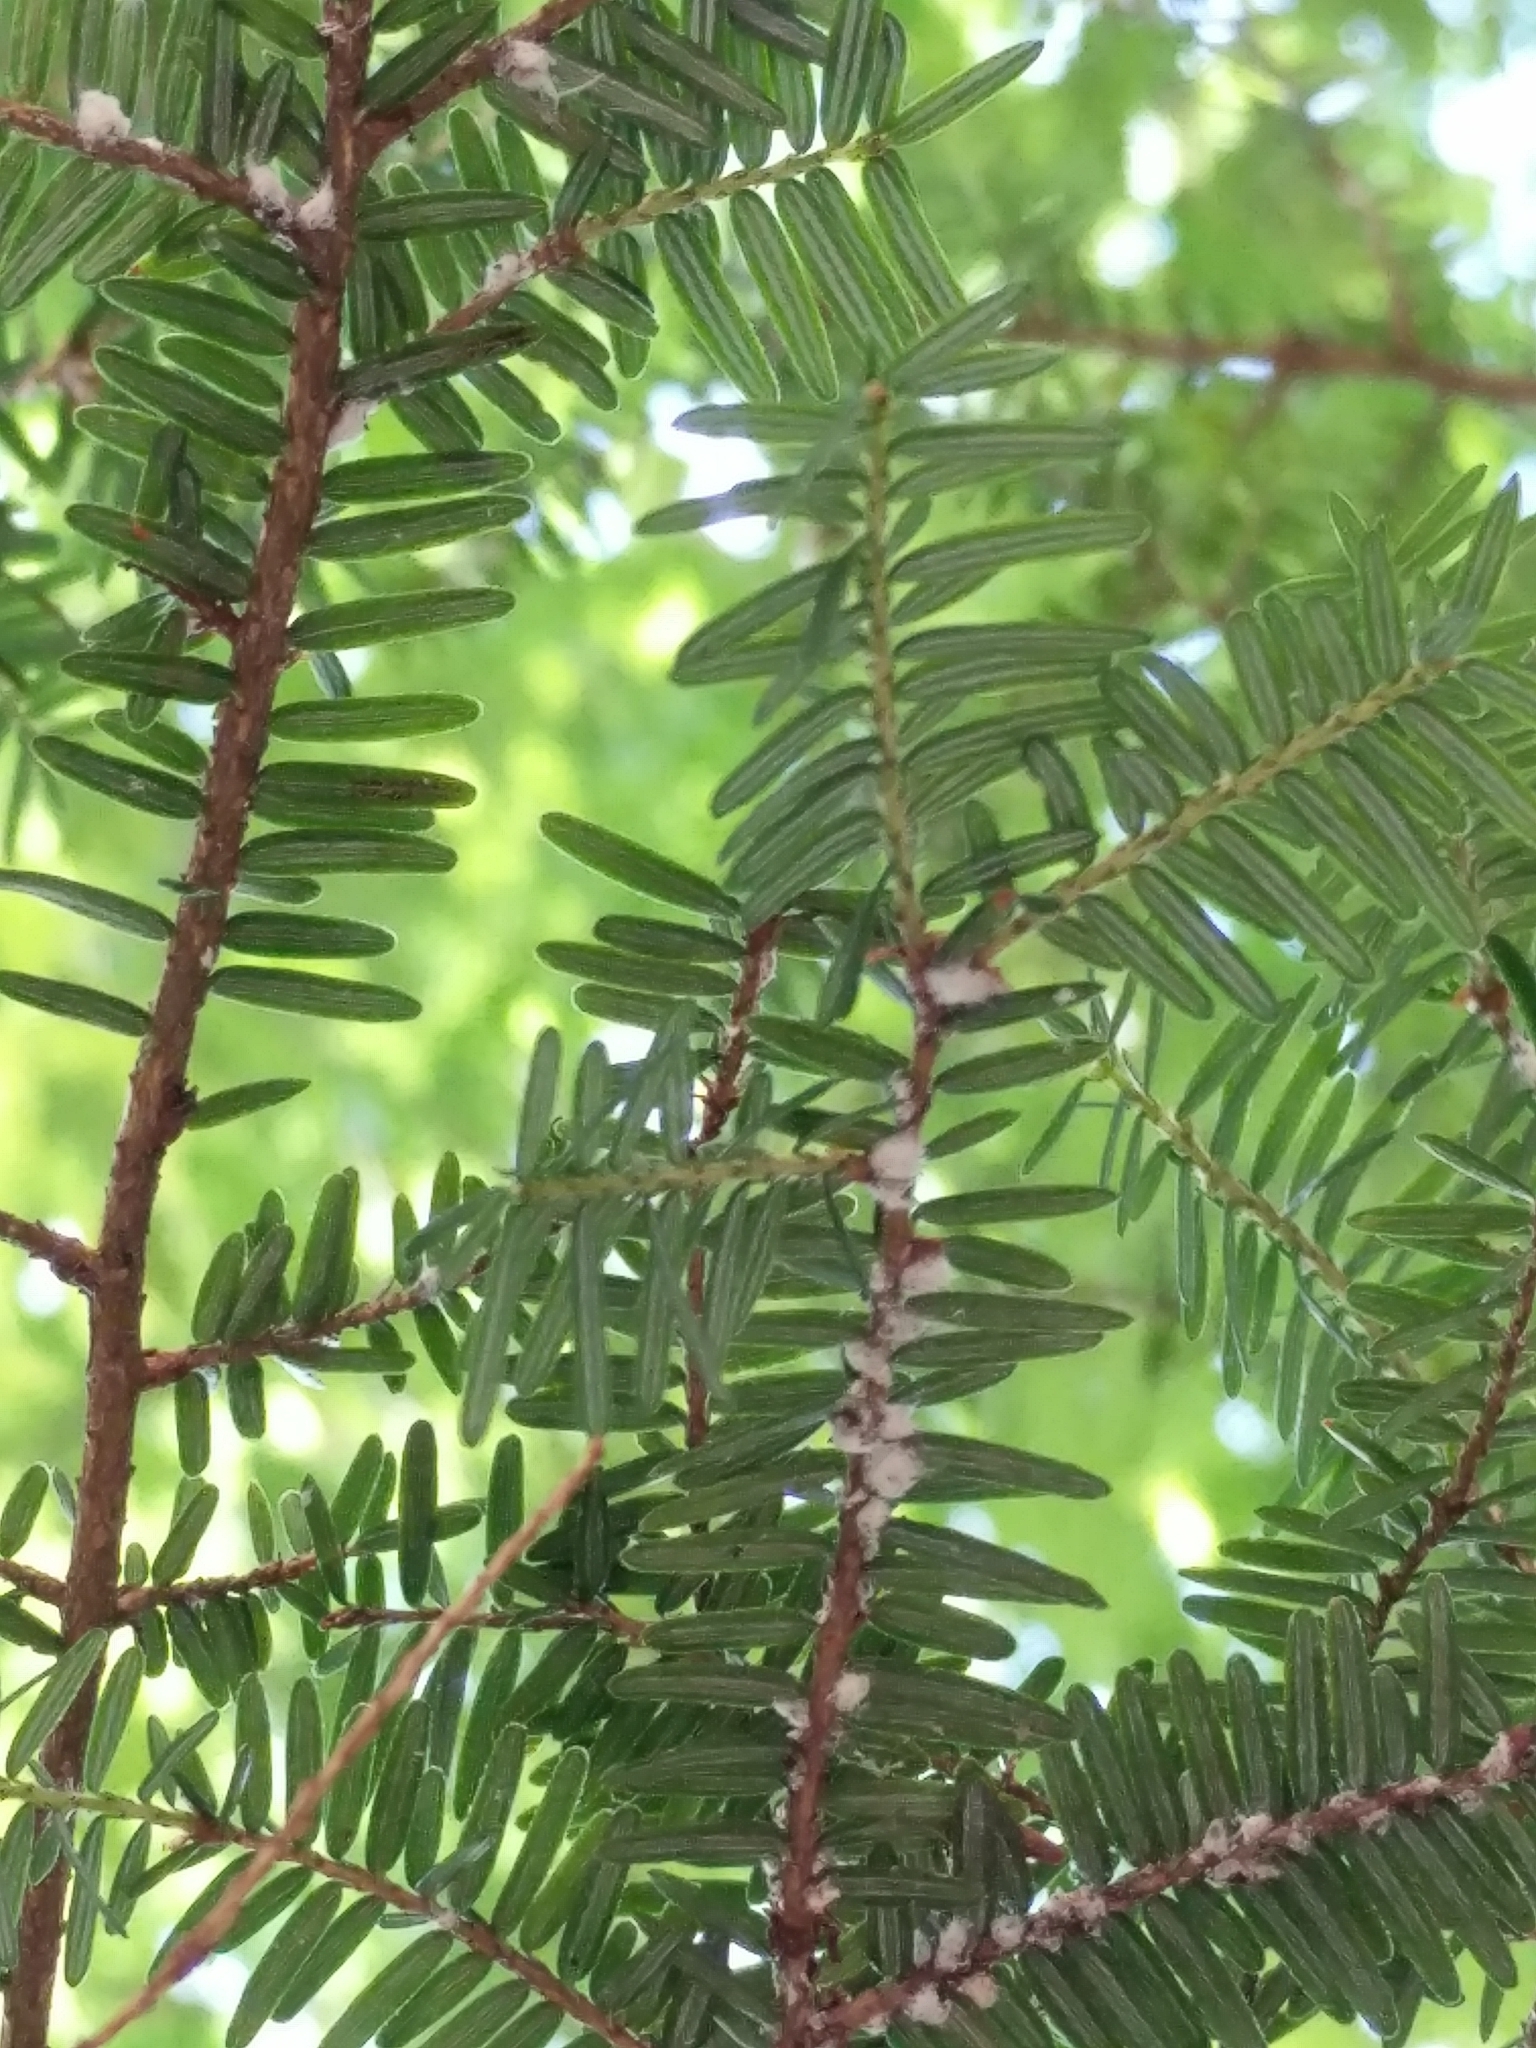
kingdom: Plantae
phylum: Tracheophyta
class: Pinopsida
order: Pinales
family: Pinaceae
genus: Tsuga
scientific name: Tsuga canadensis
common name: Eastern hemlock
